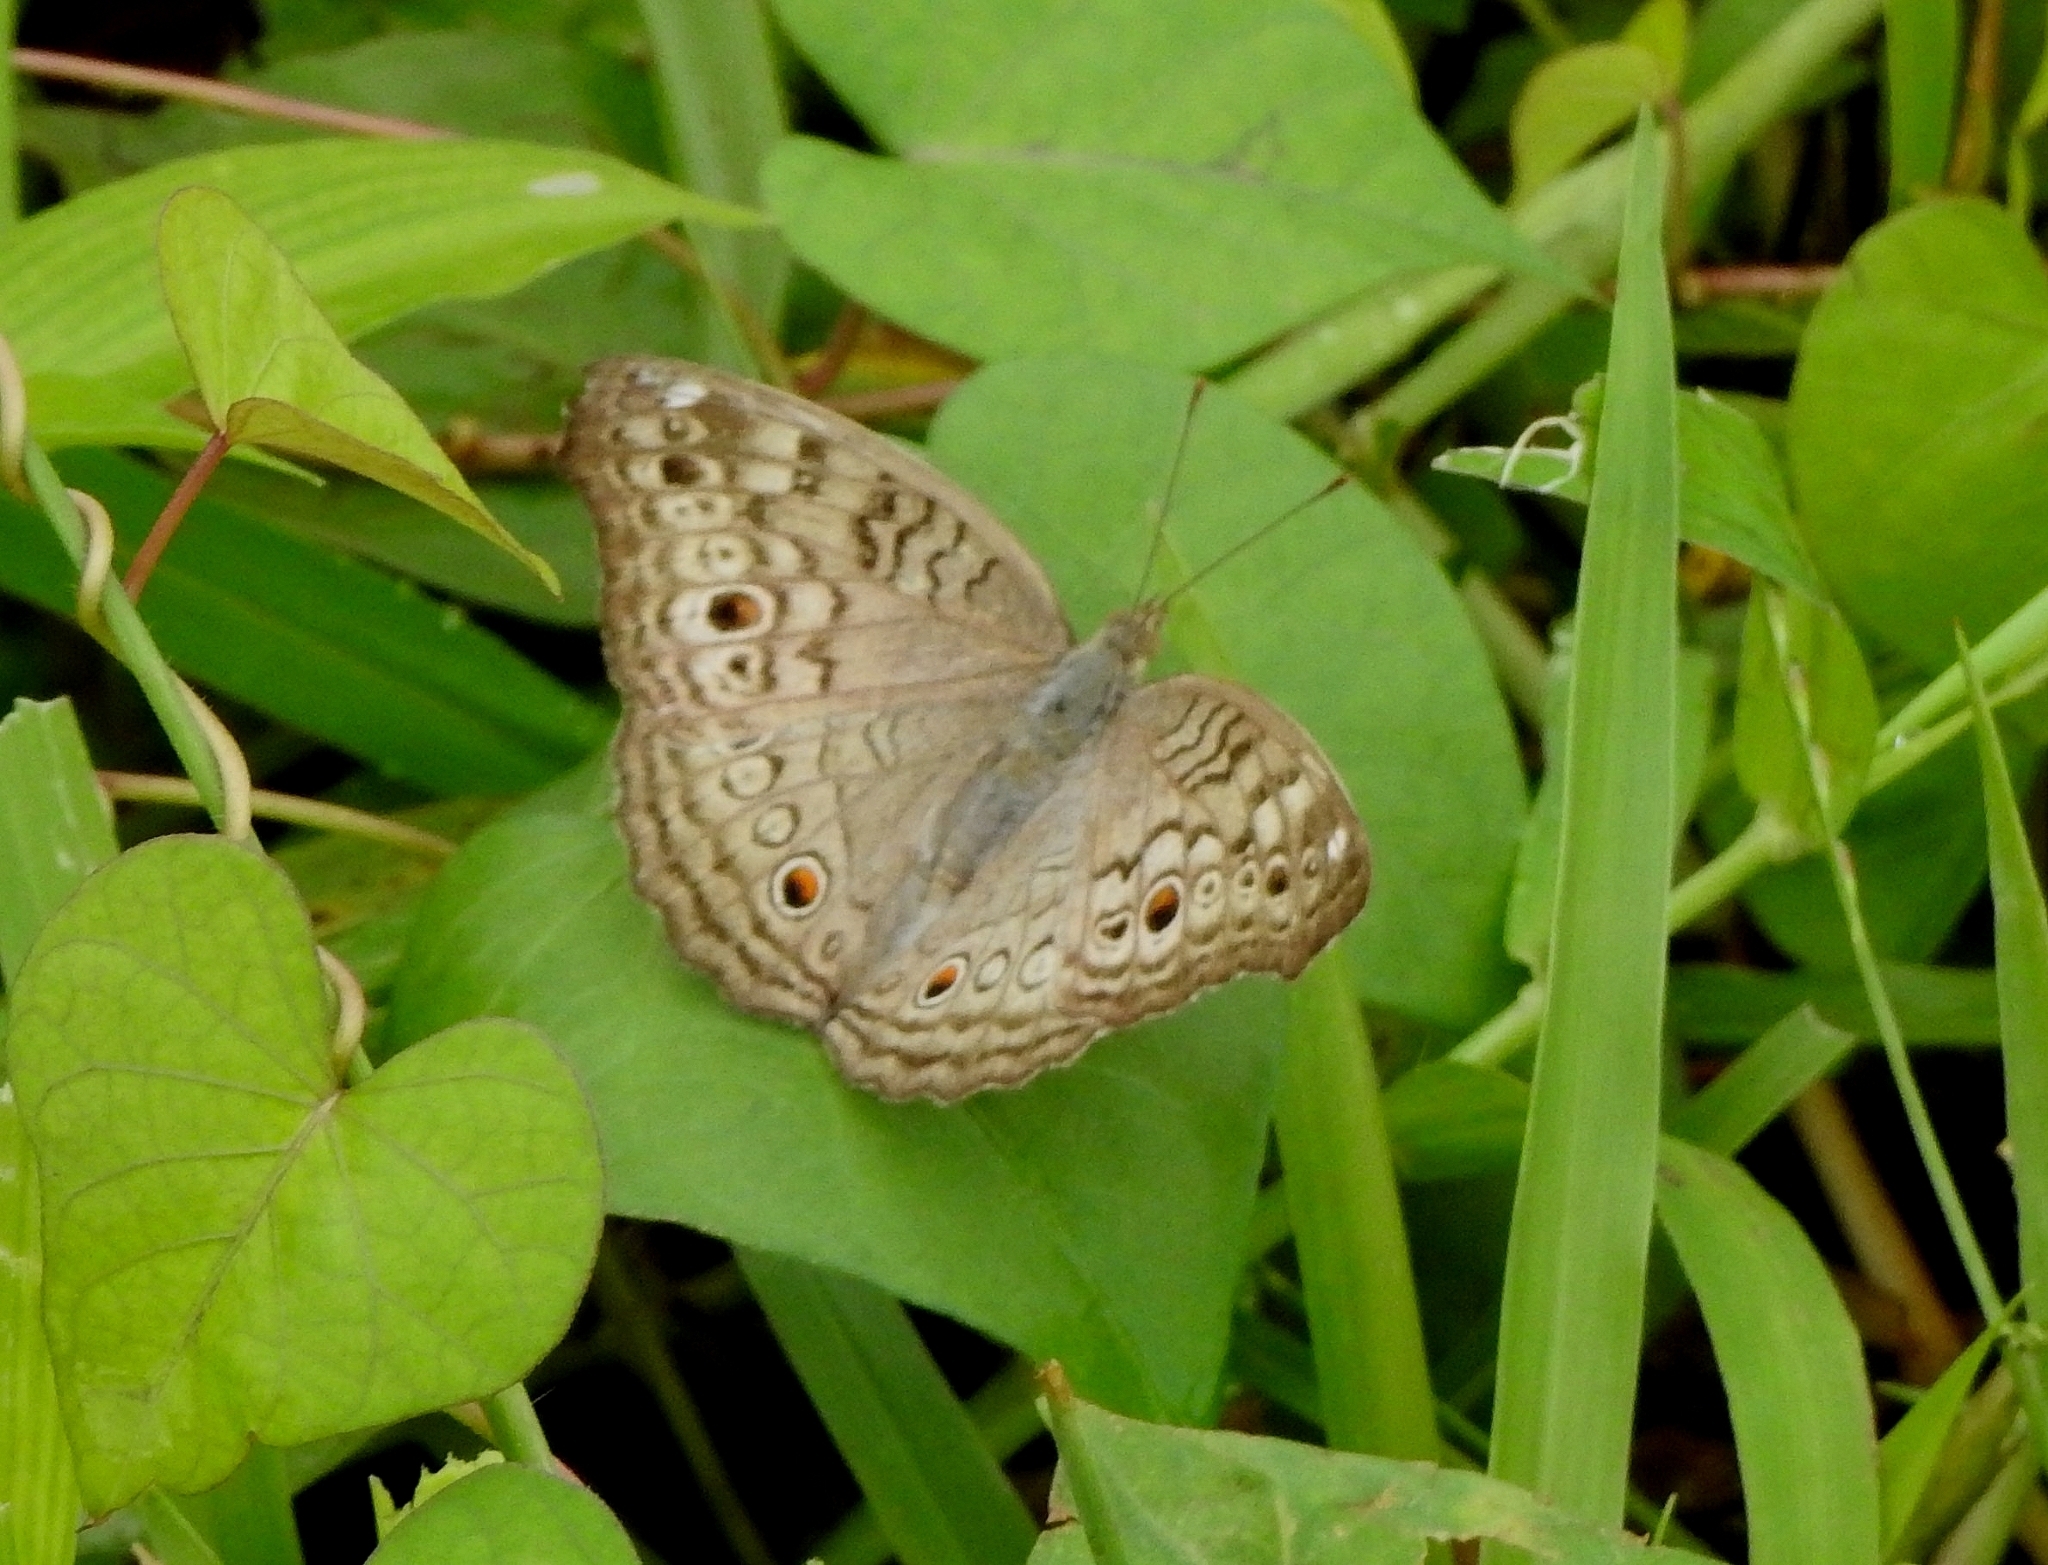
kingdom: Animalia
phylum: Arthropoda
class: Insecta
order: Lepidoptera
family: Nymphalidae
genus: Junonia
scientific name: Junonia atlites
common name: Grey pansy
